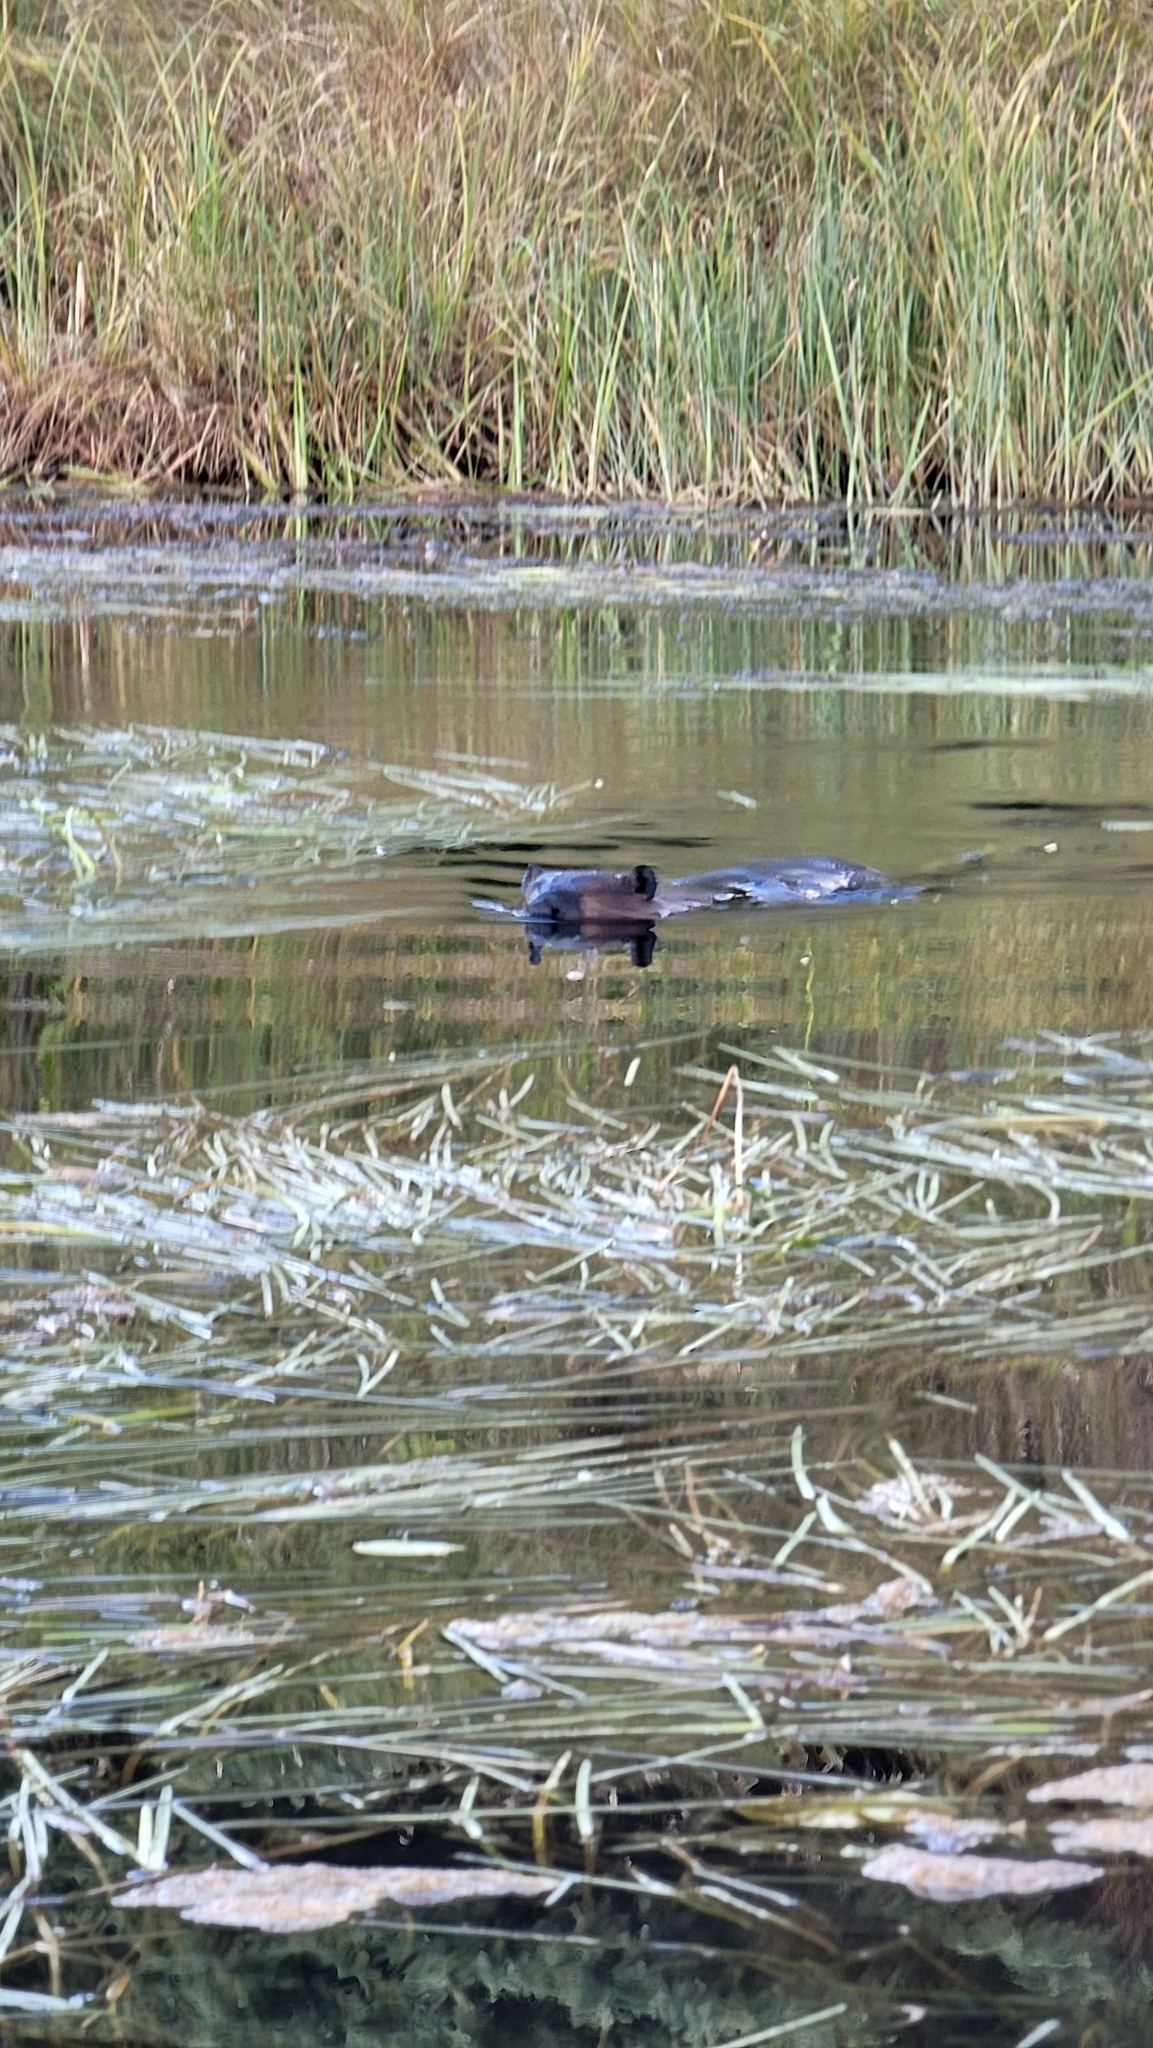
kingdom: Animalia
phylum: Chordata
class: Mammalia
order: Rodentia
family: Castoridae
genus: Castor
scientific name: Castor canadensis
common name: American beaver
